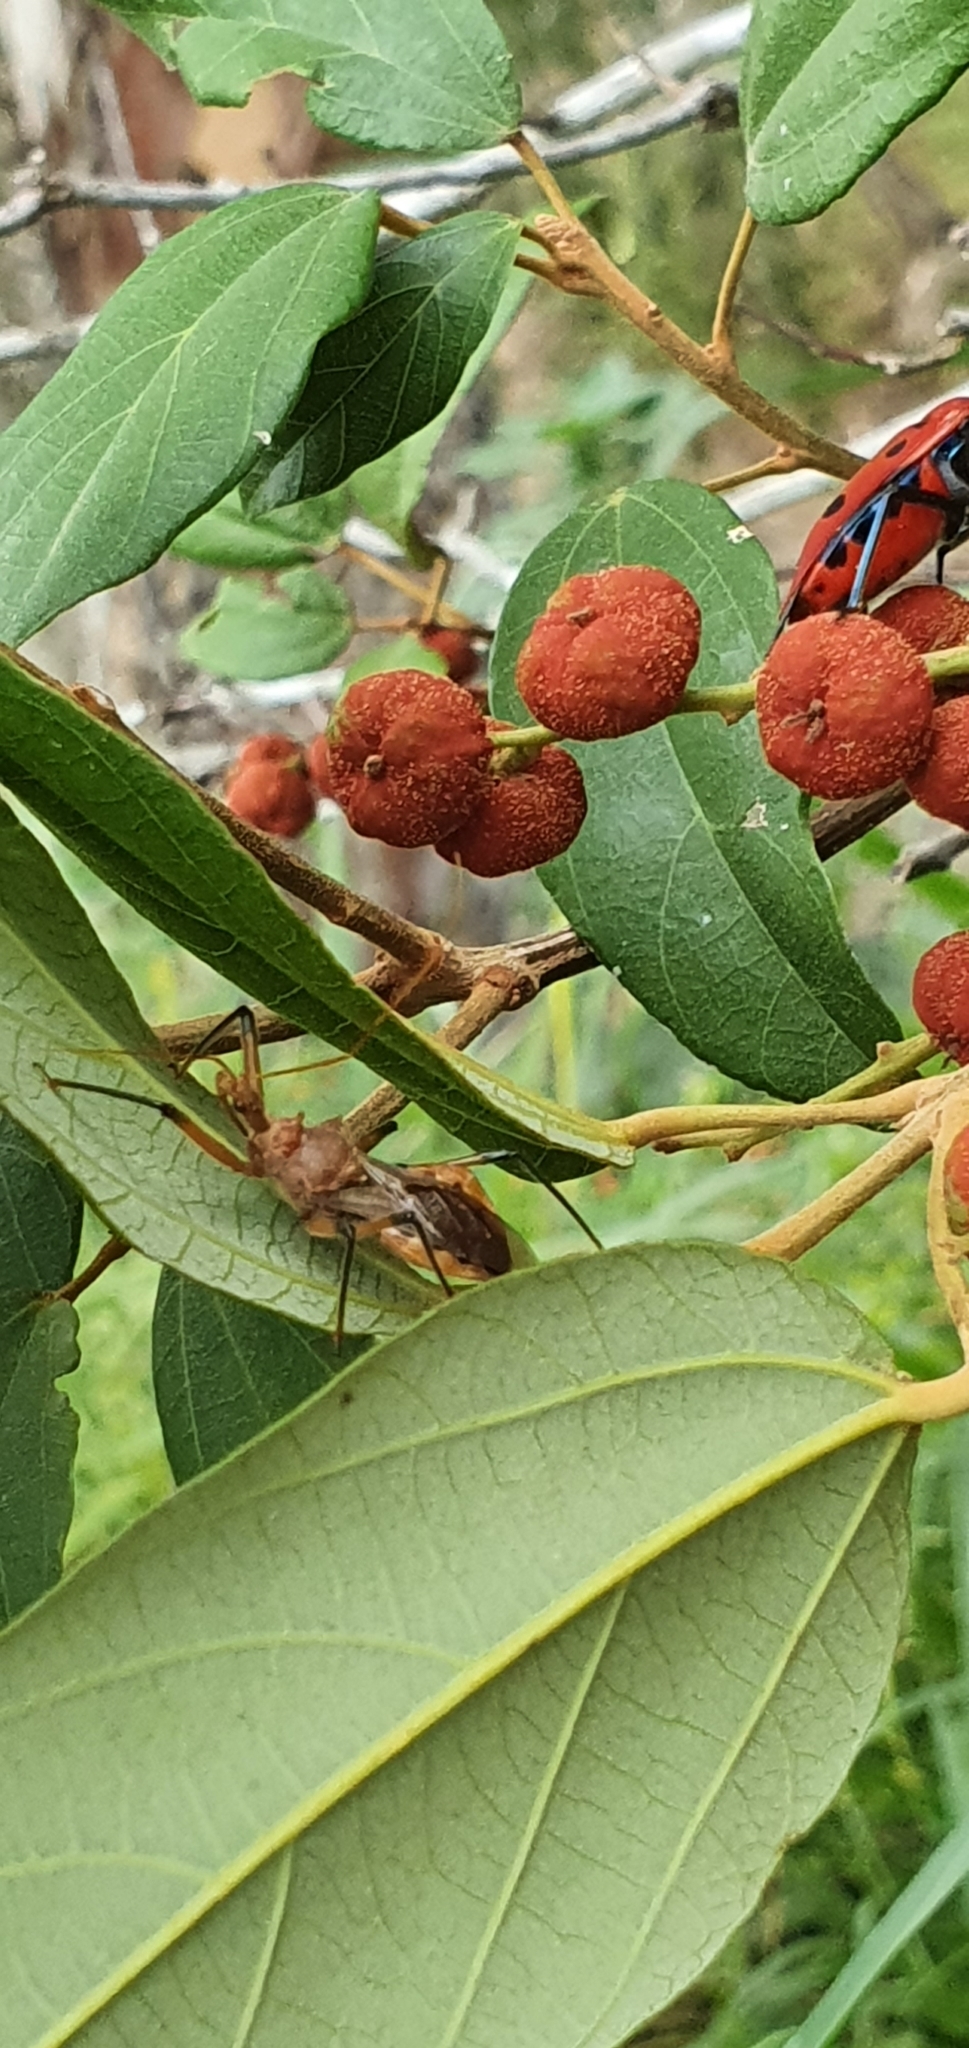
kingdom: Animalia
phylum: Arthropoda
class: Insecta
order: Hemiptera
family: Reduviidae
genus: Pristhesancus
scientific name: Pristhesancus plagipennis
